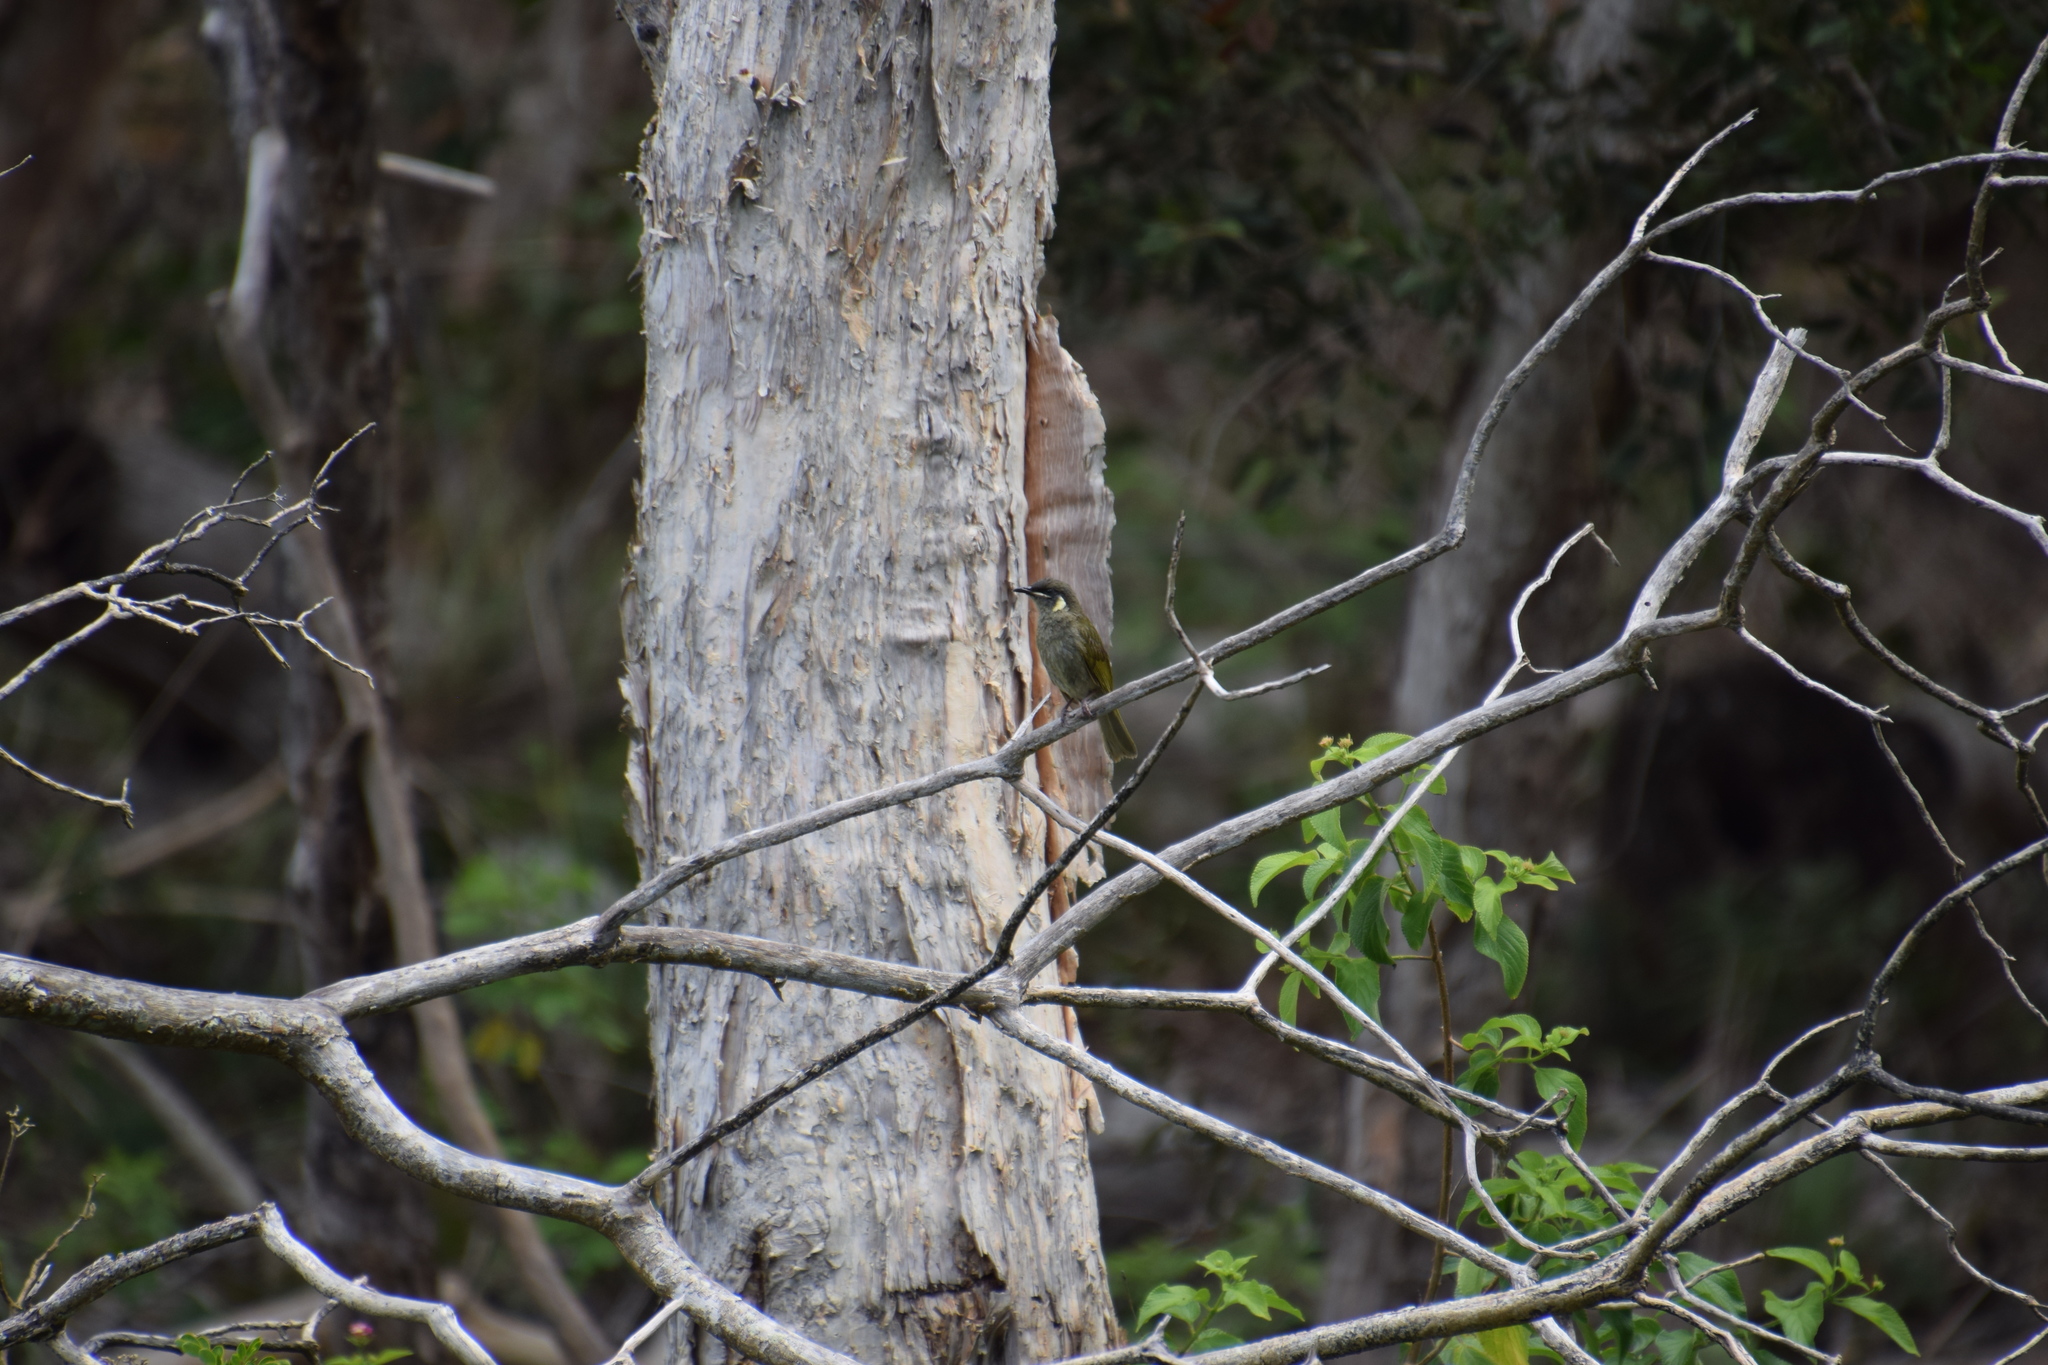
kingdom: Animalia
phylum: Chordata
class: Aves
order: Passeriformes
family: Meliphagidae
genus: Meliphaga
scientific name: Meliphaga lewinii
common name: Lewin's honeyeater
